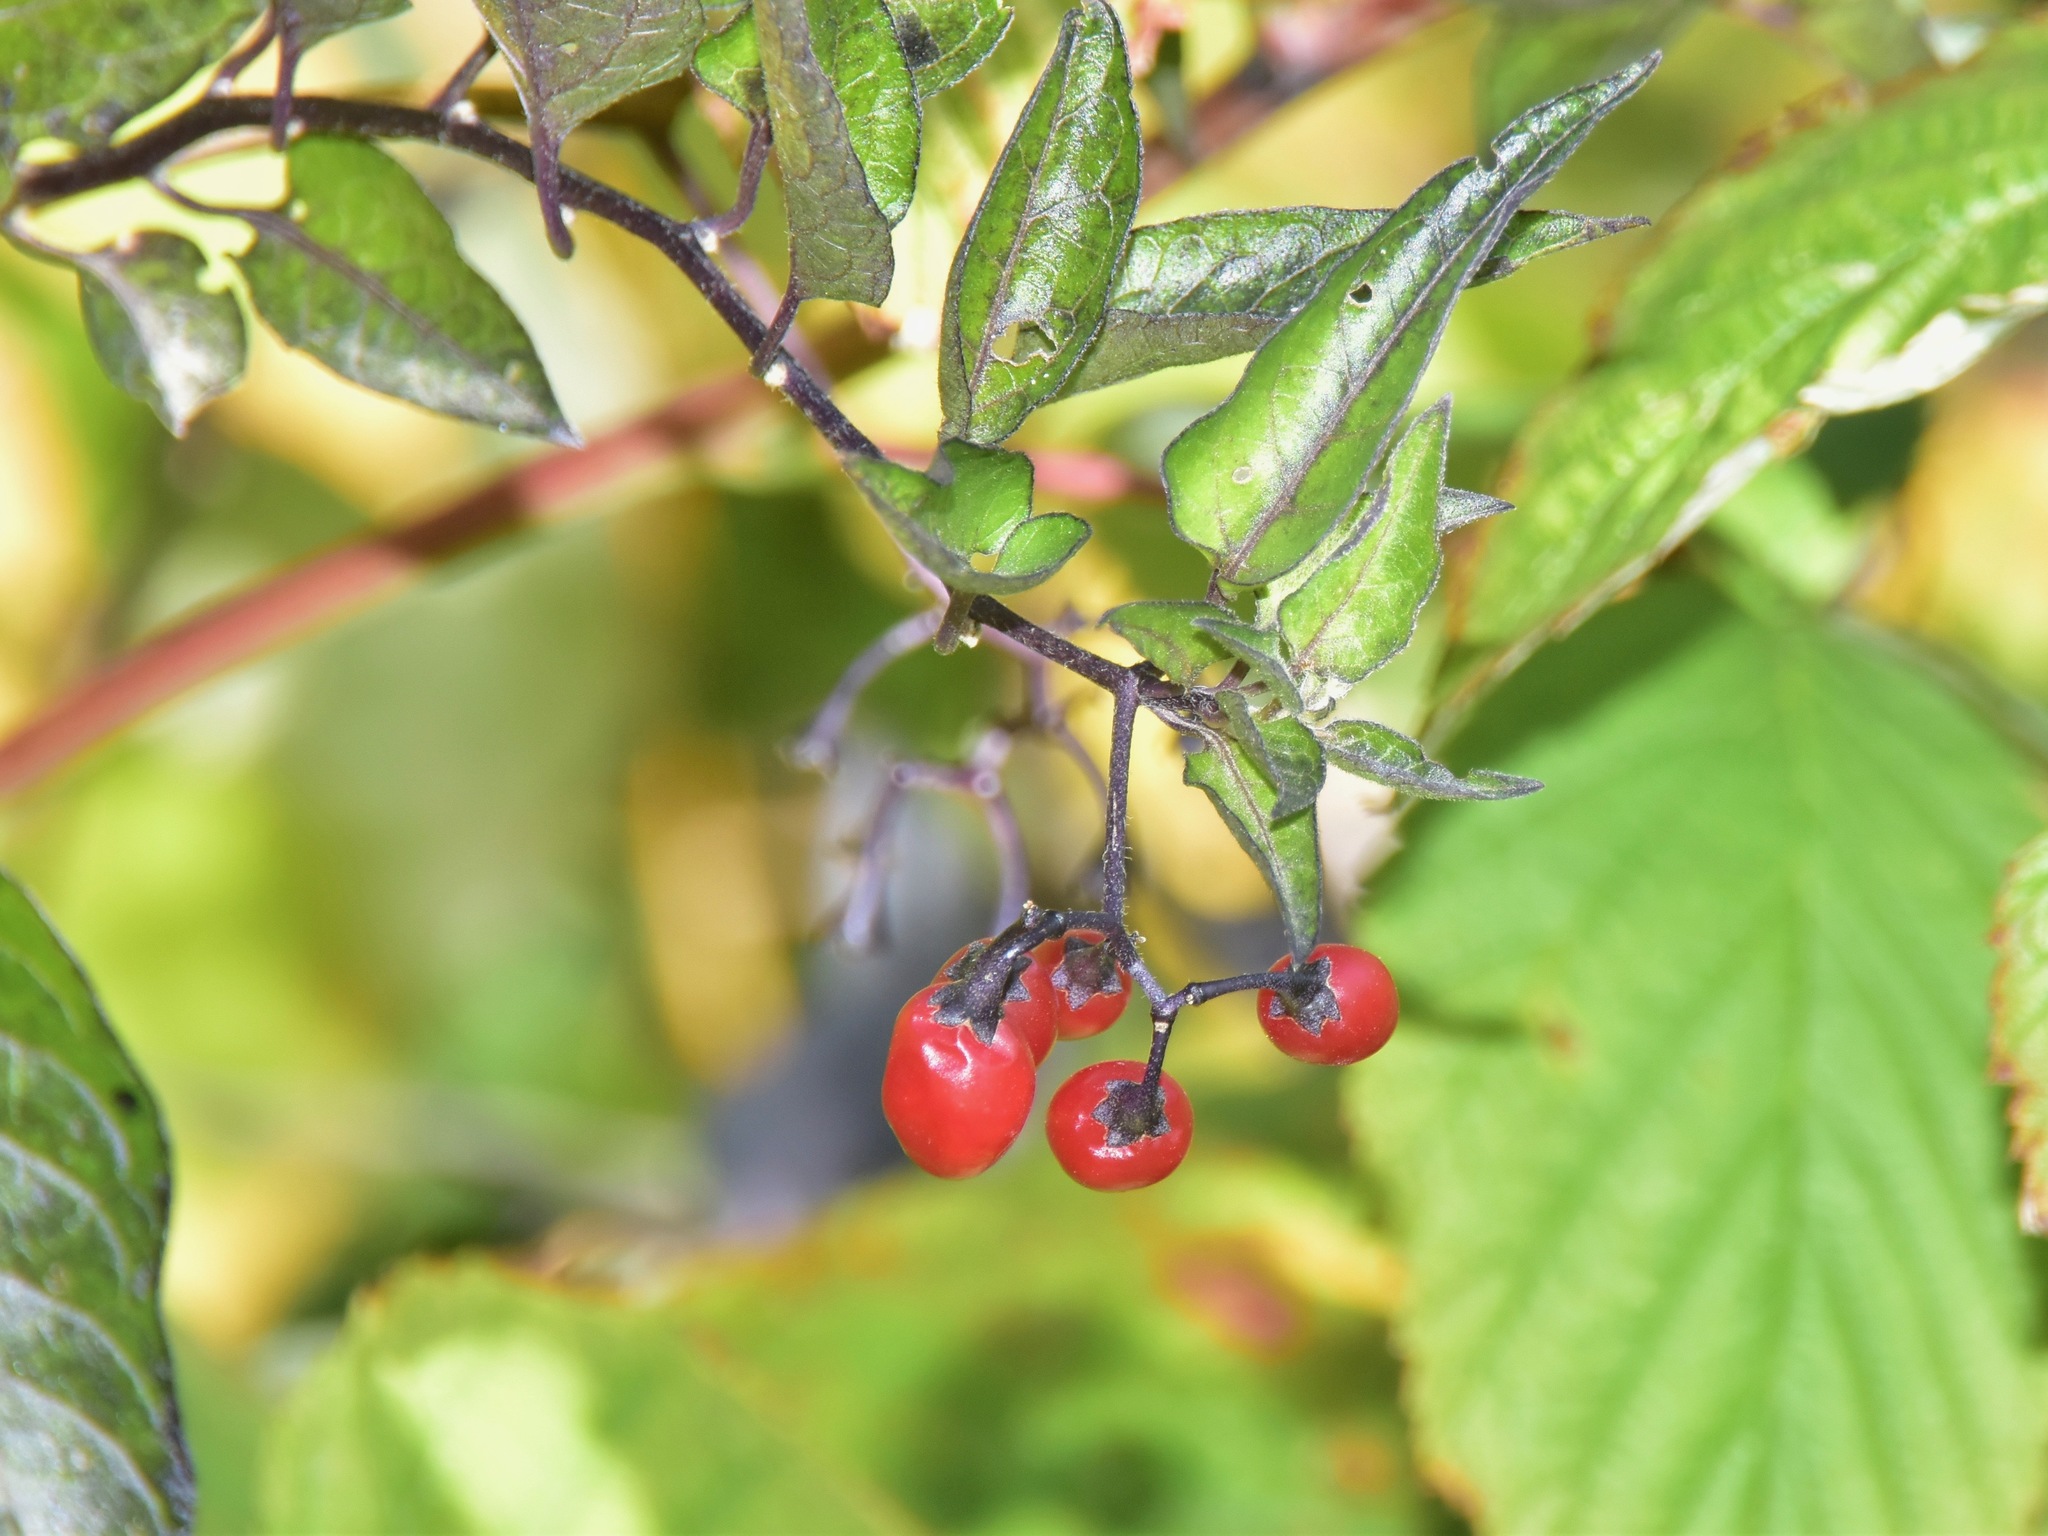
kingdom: Plantae
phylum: Tracheophyta
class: Magnoliopsida
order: Solanales
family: Solanaceae
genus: Solanum
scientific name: Solanum dulcamara
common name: Climbing nightshade
